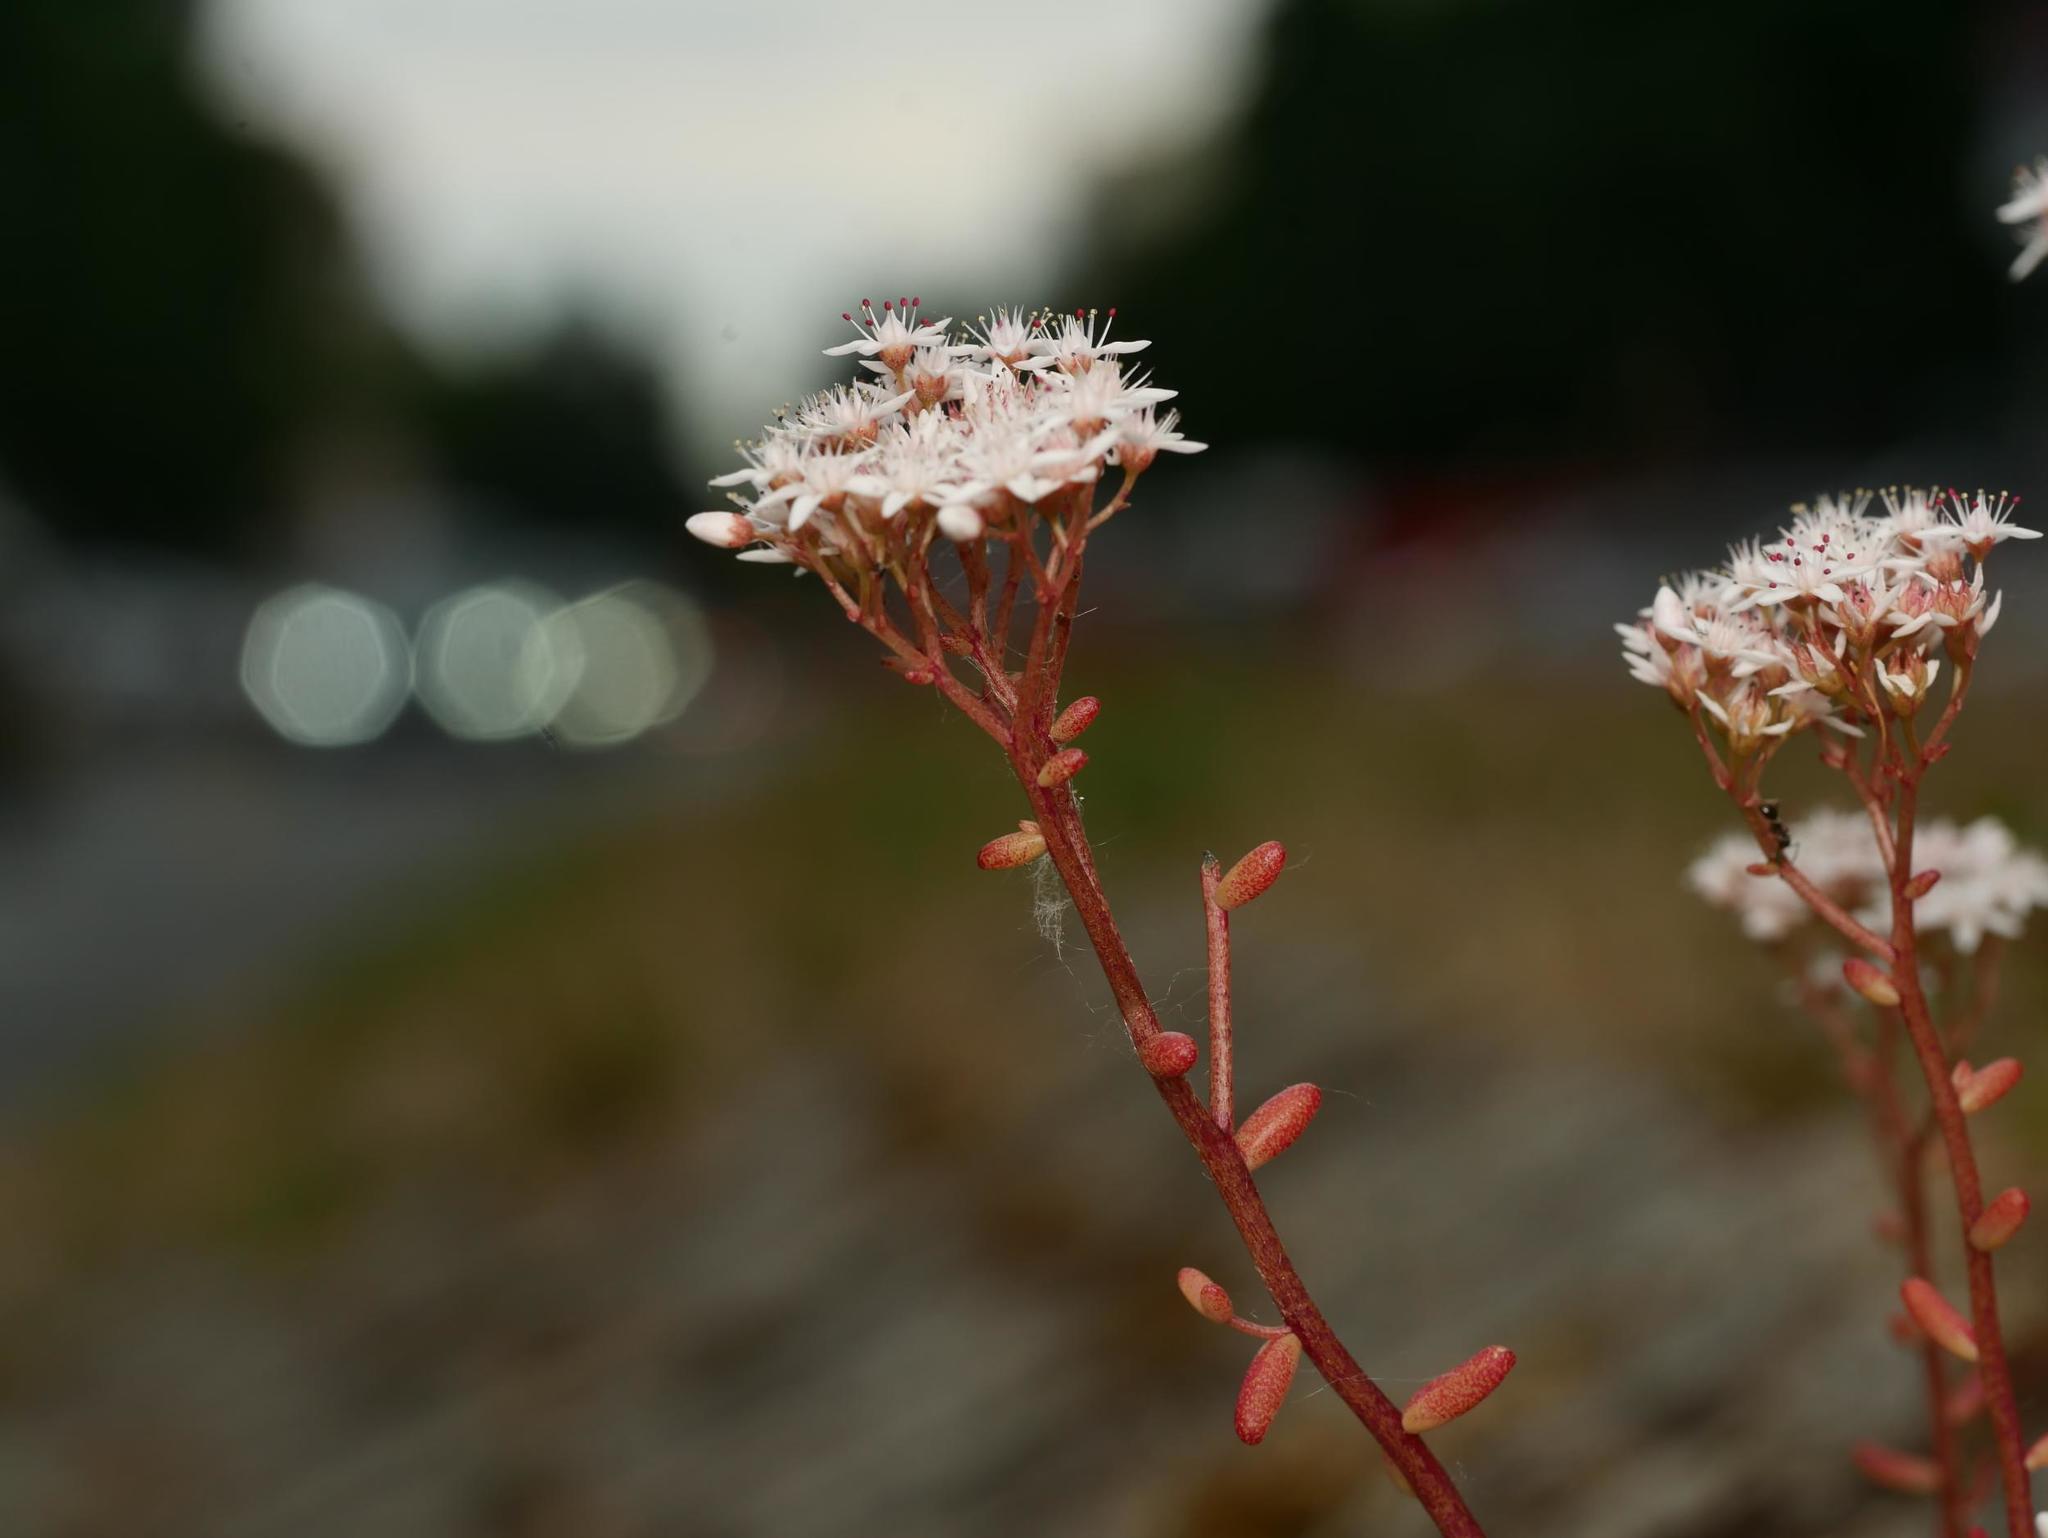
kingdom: Plantae
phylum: Tracheophyta
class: Magnoliopsida
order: Saxifragales
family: Crassulaceae
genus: Sedum
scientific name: Sedum album
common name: White stonecrop
